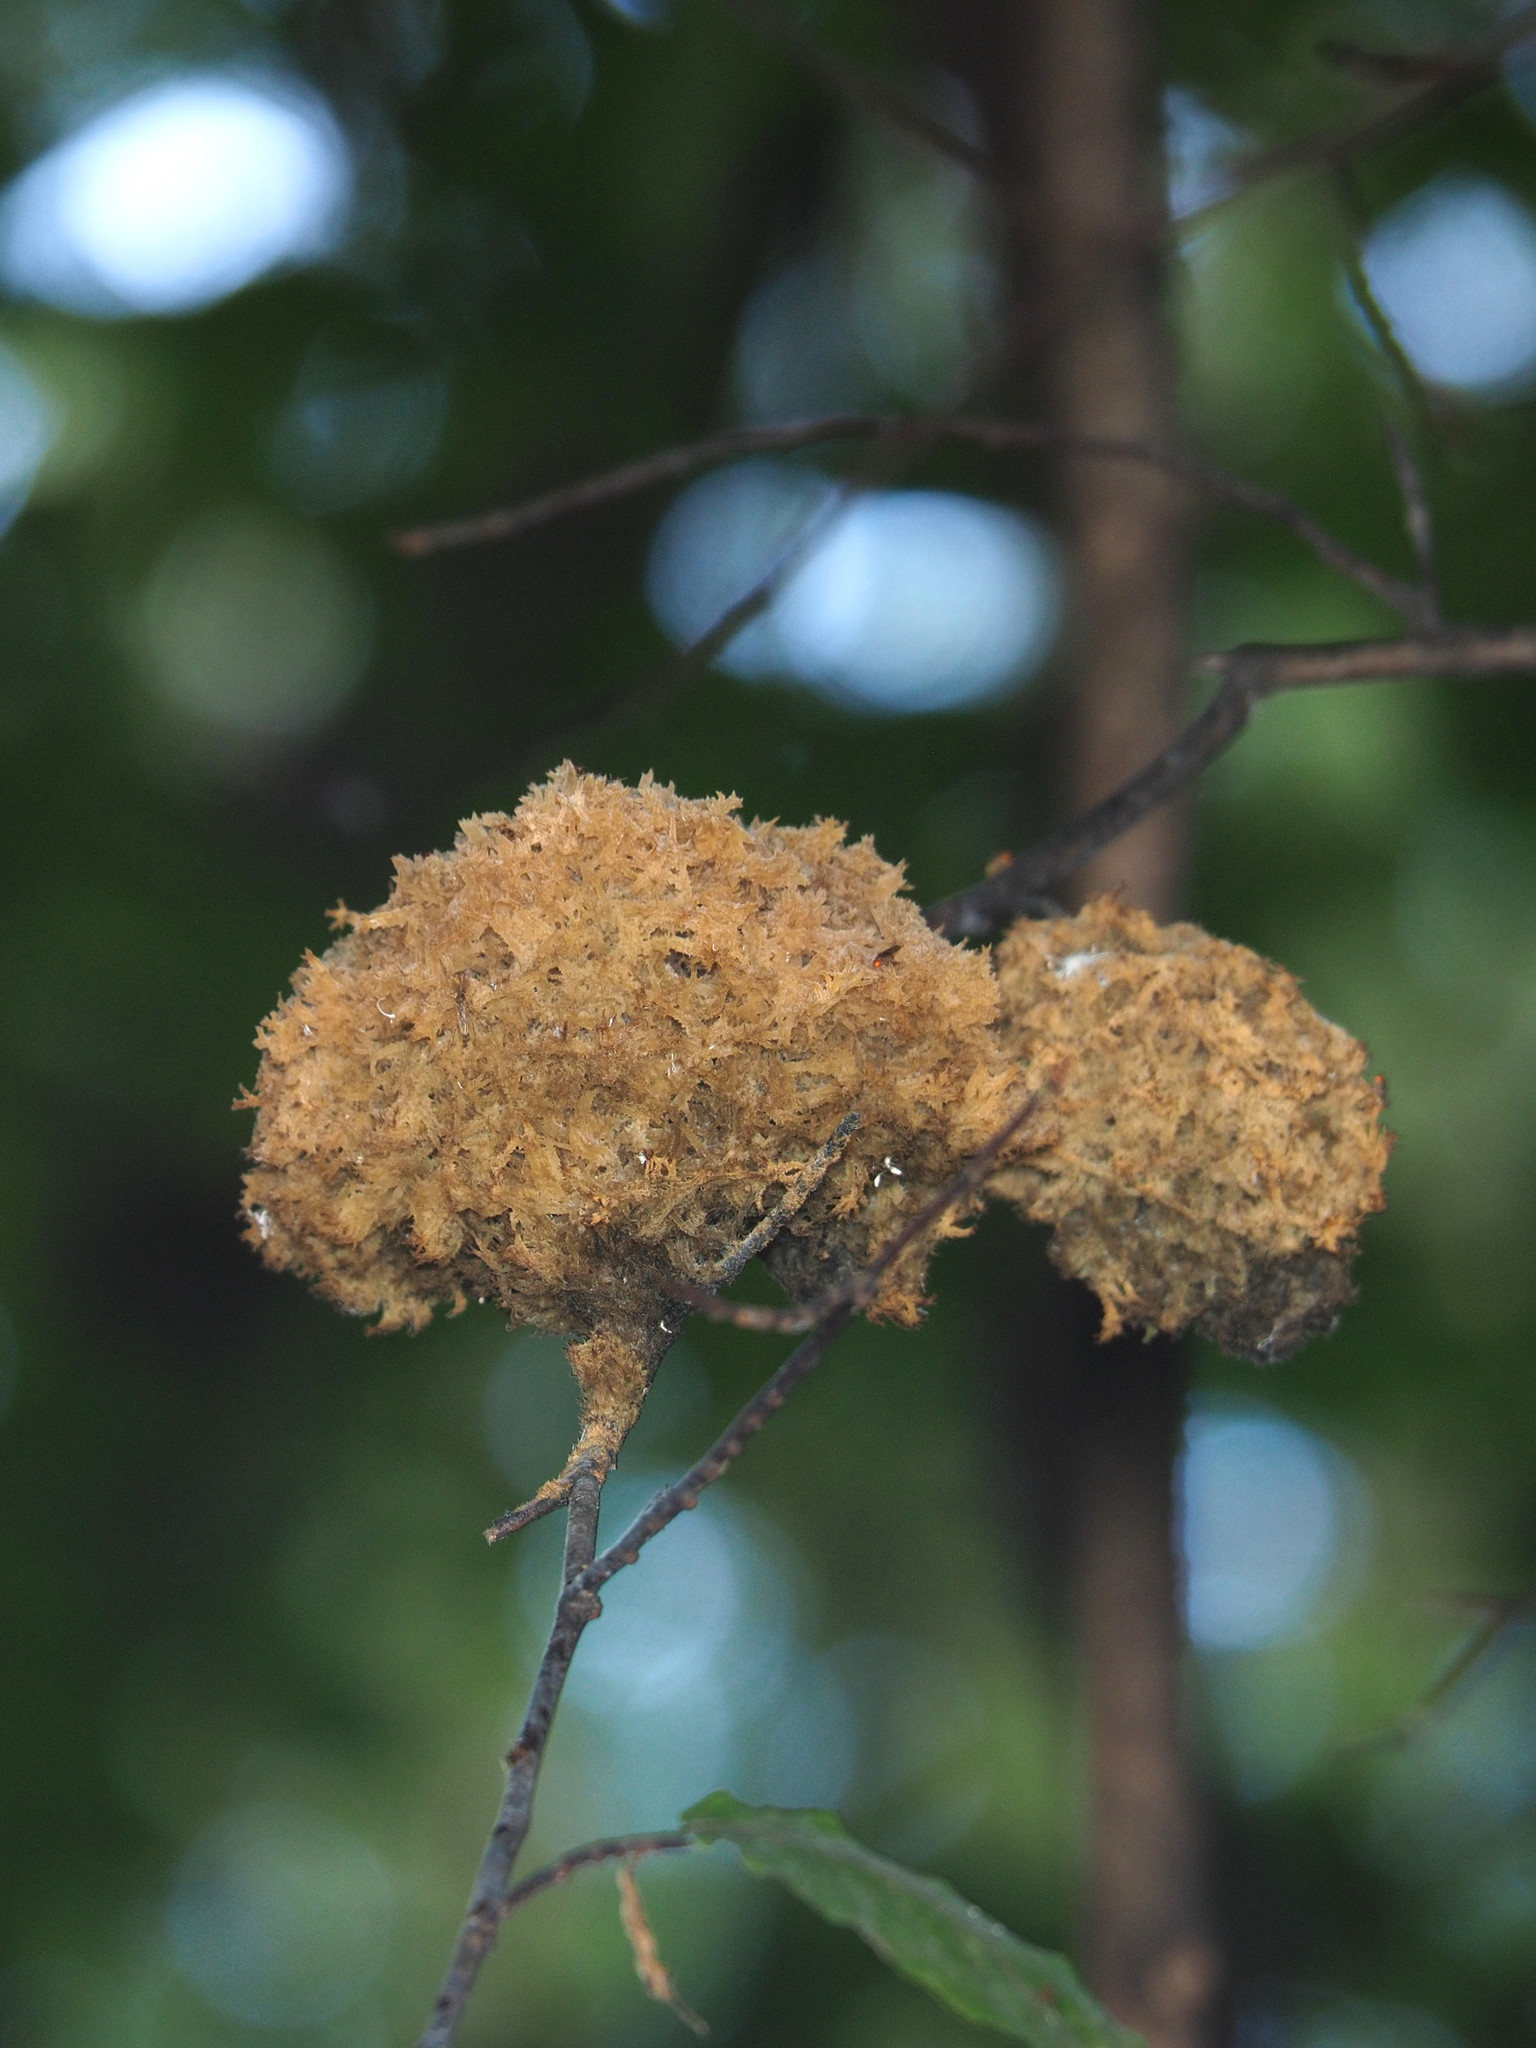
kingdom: Fungi
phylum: Ascomycota
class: Dothideomycetes
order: Capnodiales
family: Capnodiaceae
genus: Scorias
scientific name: Scorias spongiosa
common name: Black sooty mold
